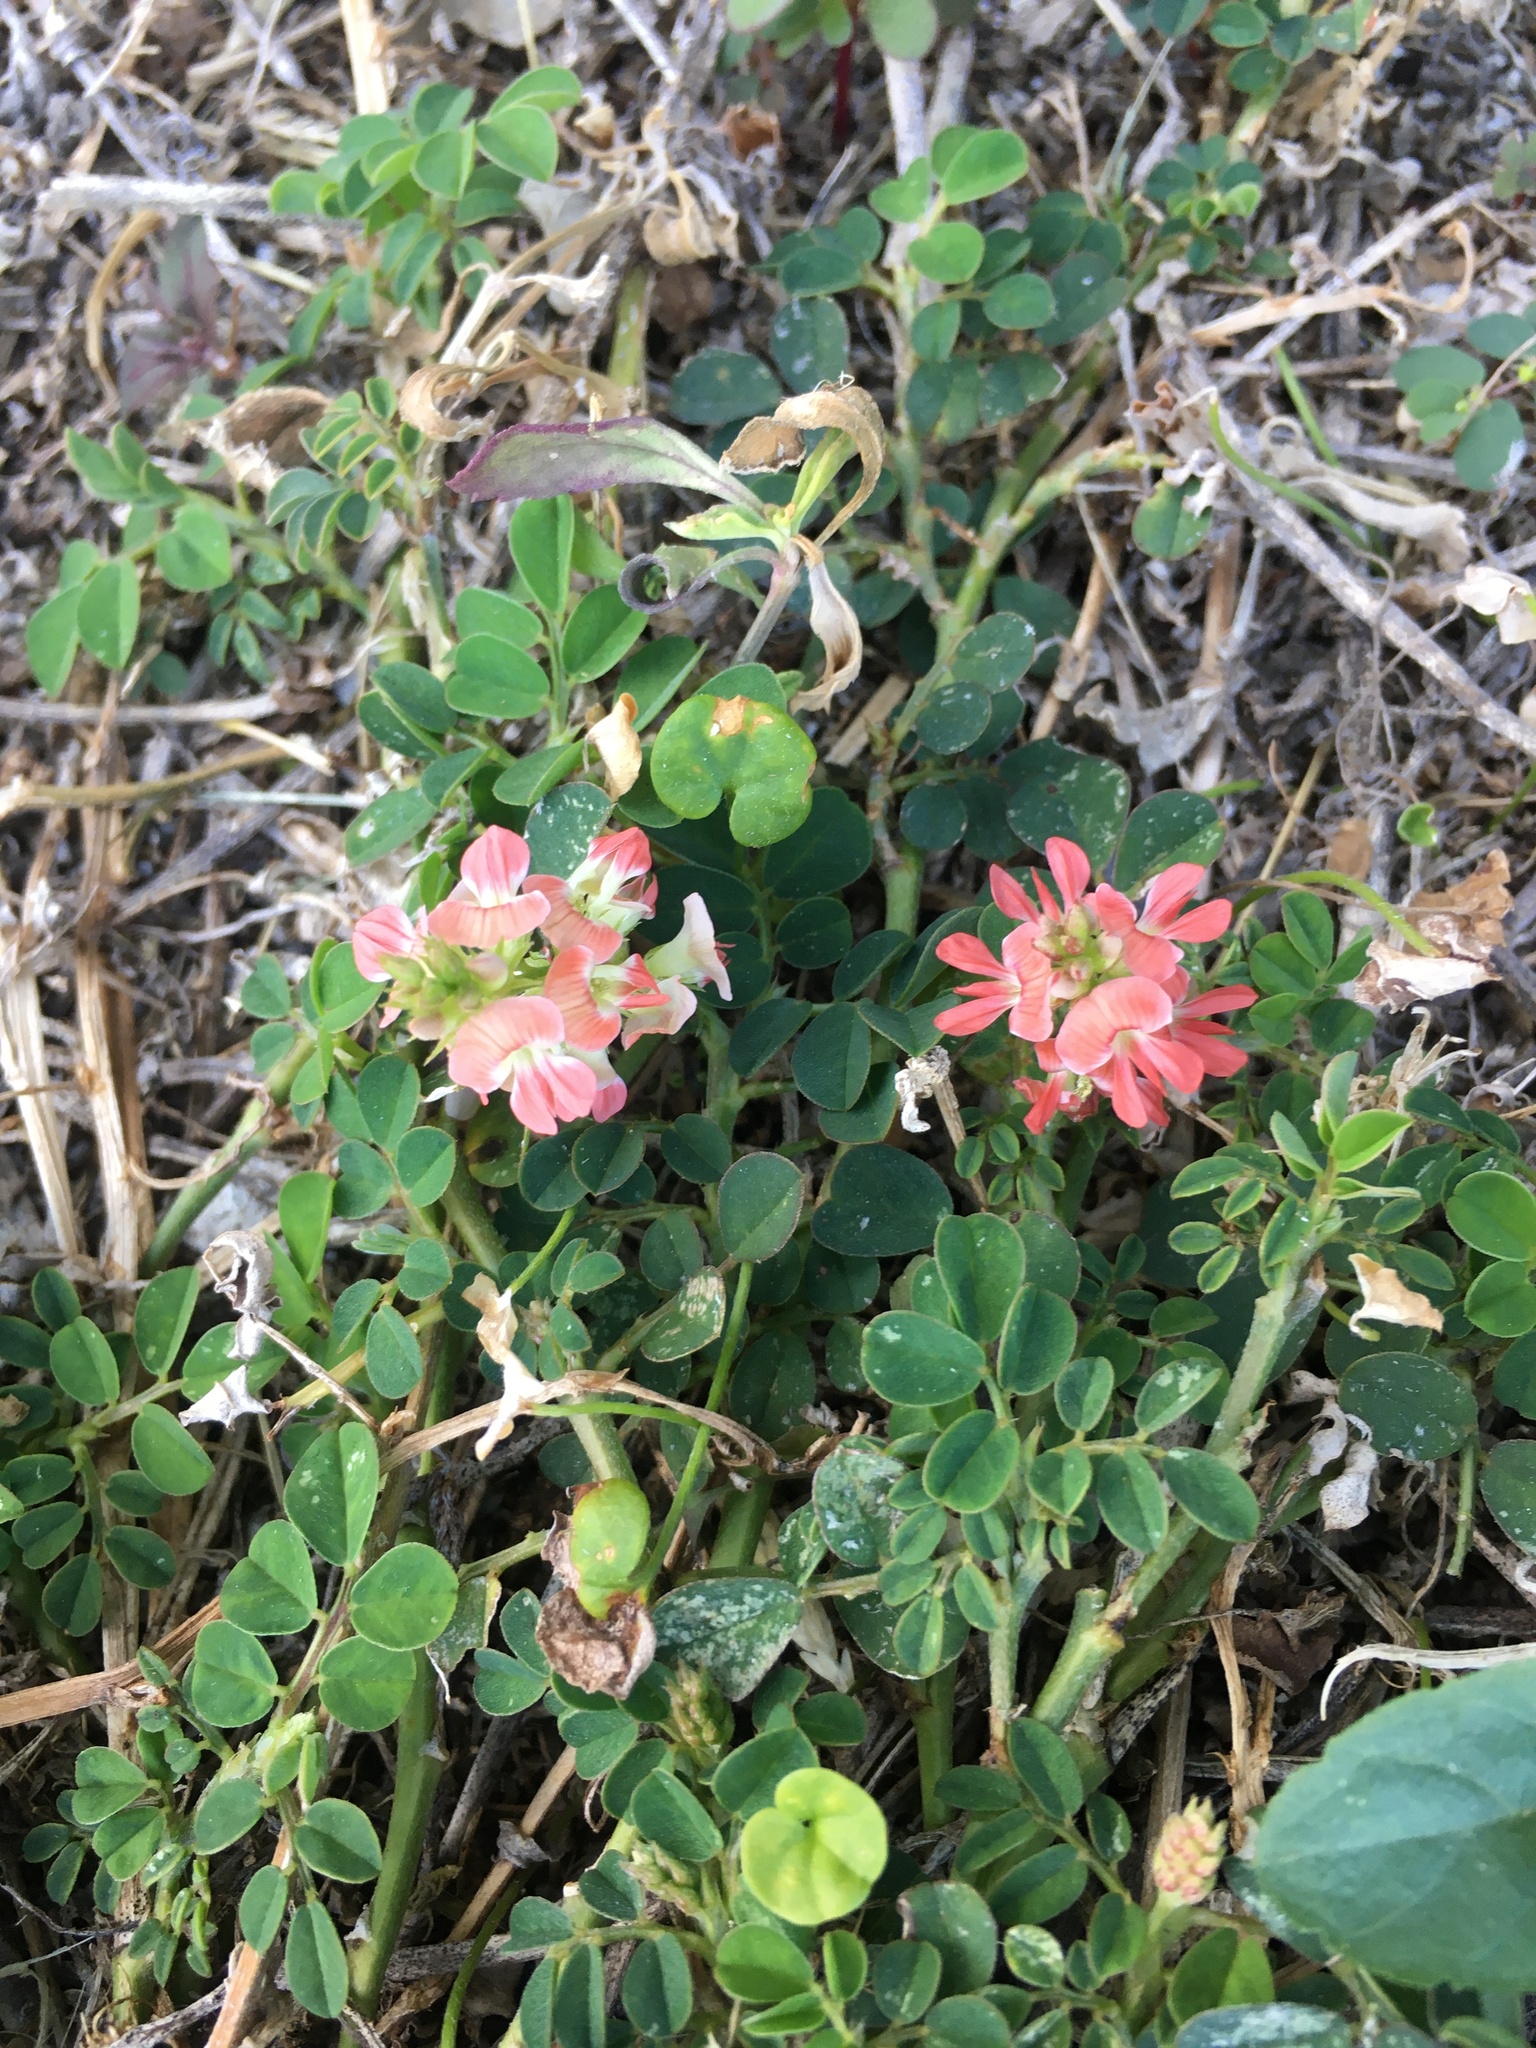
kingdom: Plantae
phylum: Tracheophyta
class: Magnoliopsida
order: Fabales
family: Fabaceae
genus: Indigofera
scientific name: Indigofera spicata
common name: Creeping indigo
